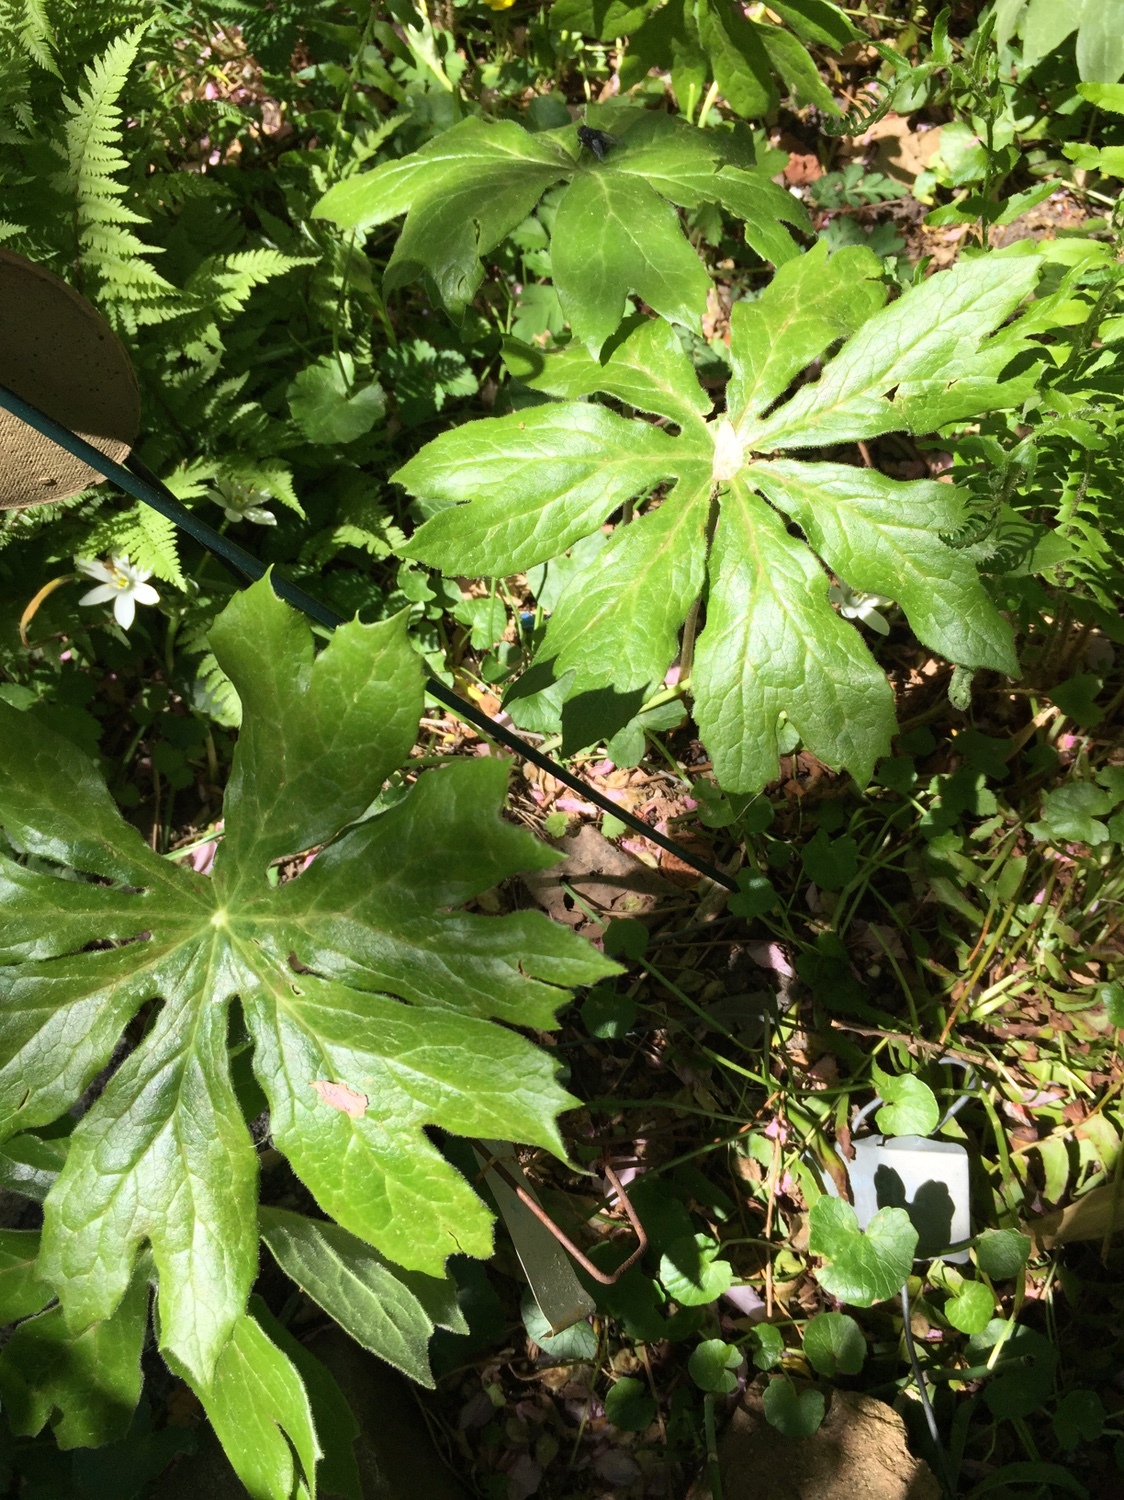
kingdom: Plantae
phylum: Tracheophyta
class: Magnoliopsida
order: Ranunculales
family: Berberidaceae
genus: Podophyllum
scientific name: Podophyllum peltatum
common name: Wild mandrake
